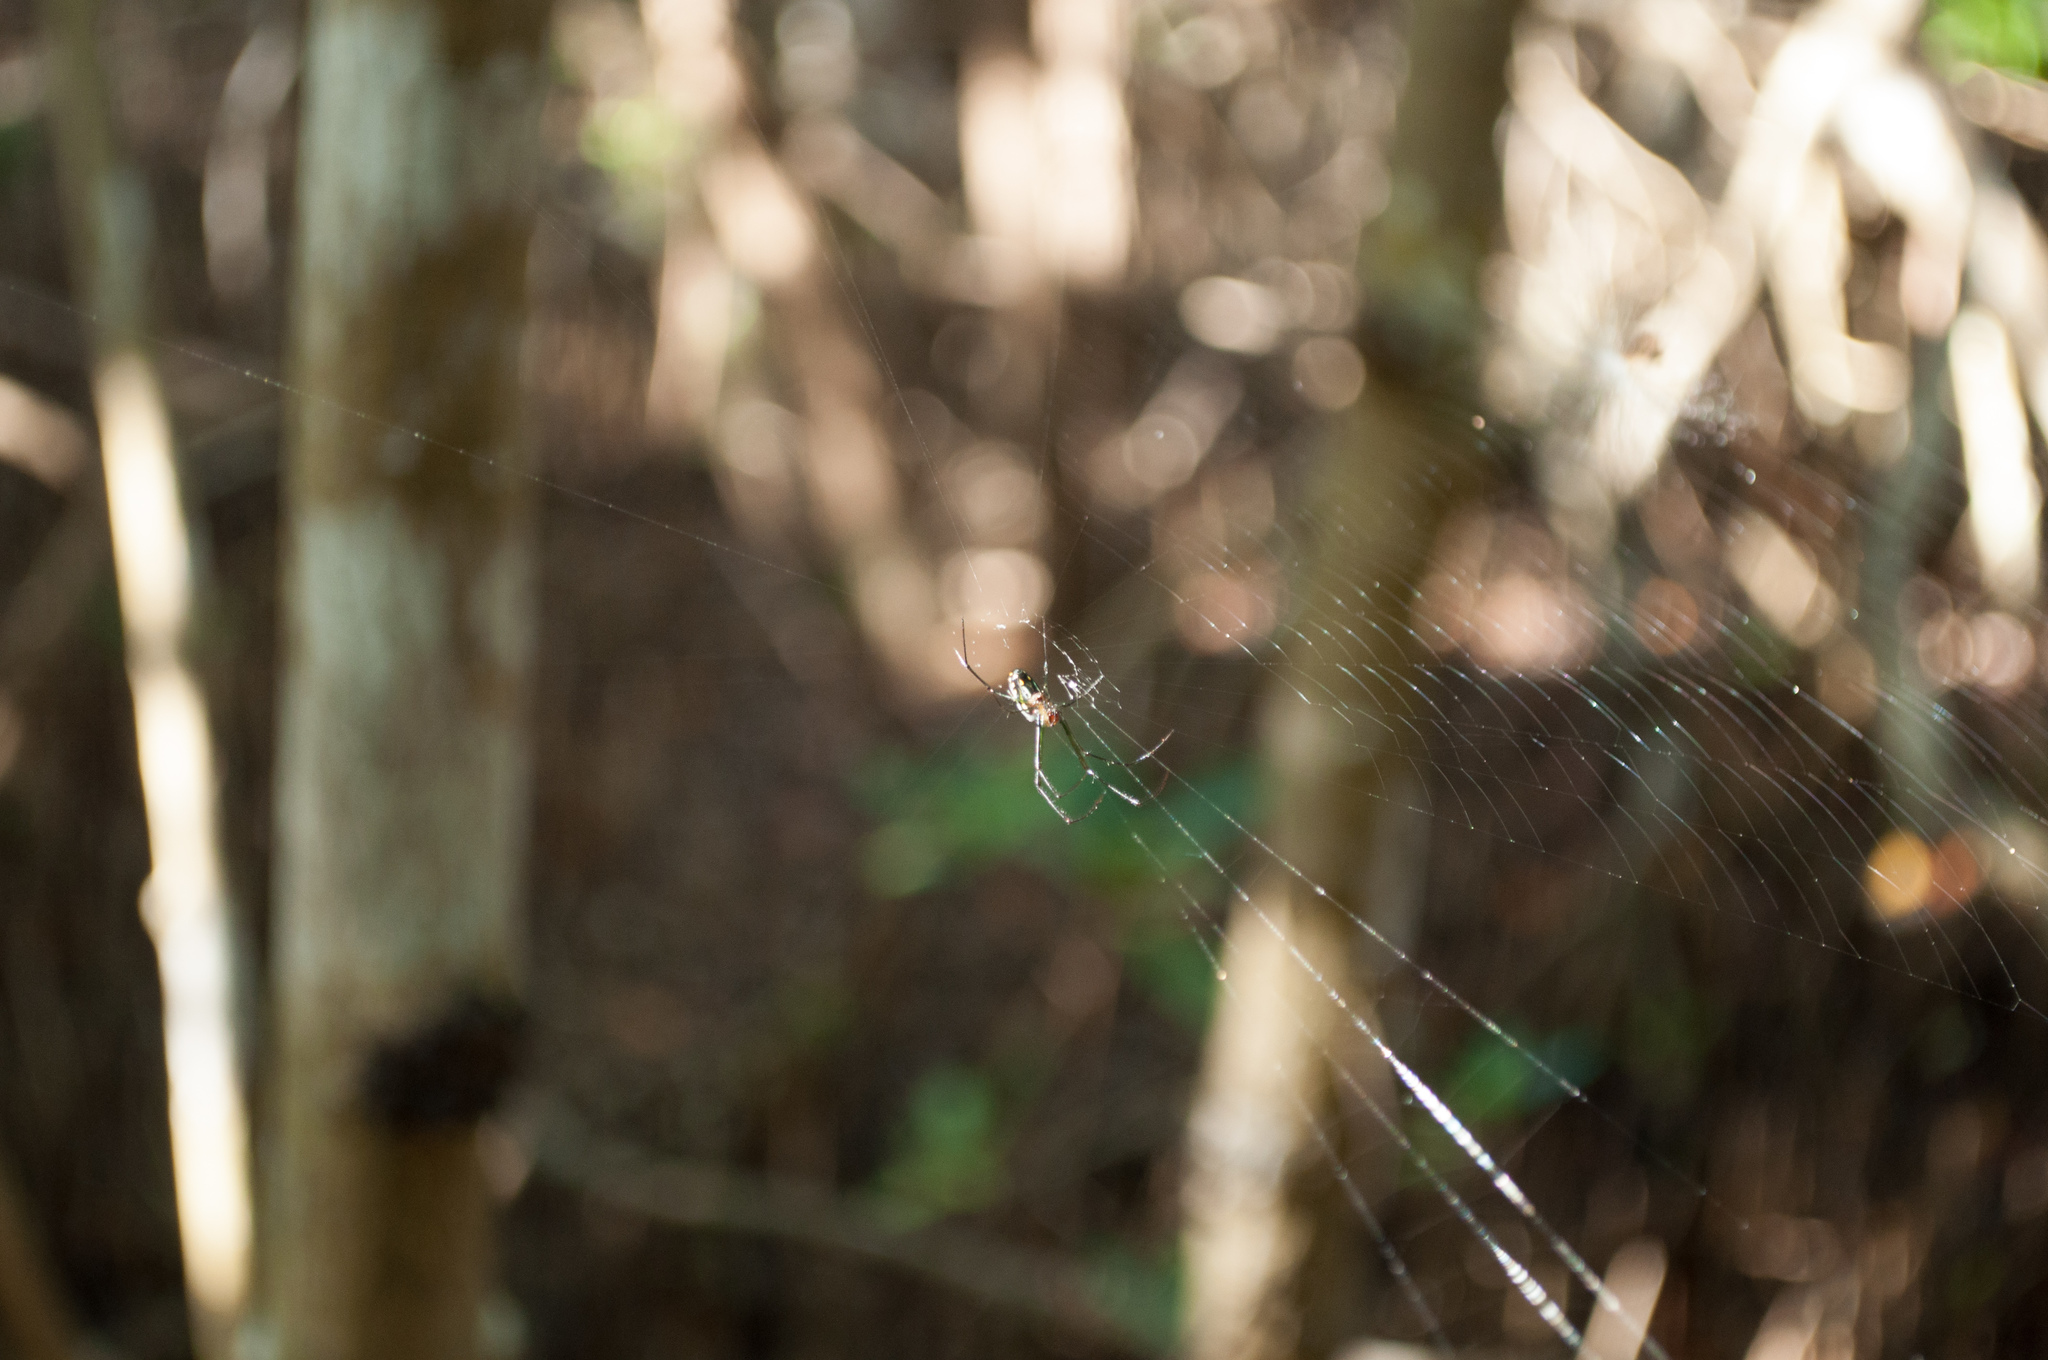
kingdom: Animalia
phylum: Arthropoda
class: Arachnida
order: Araneae
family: Tetragnathidae
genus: Leucauge
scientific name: Leucauge argyra
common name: Longjawed orb weavers
